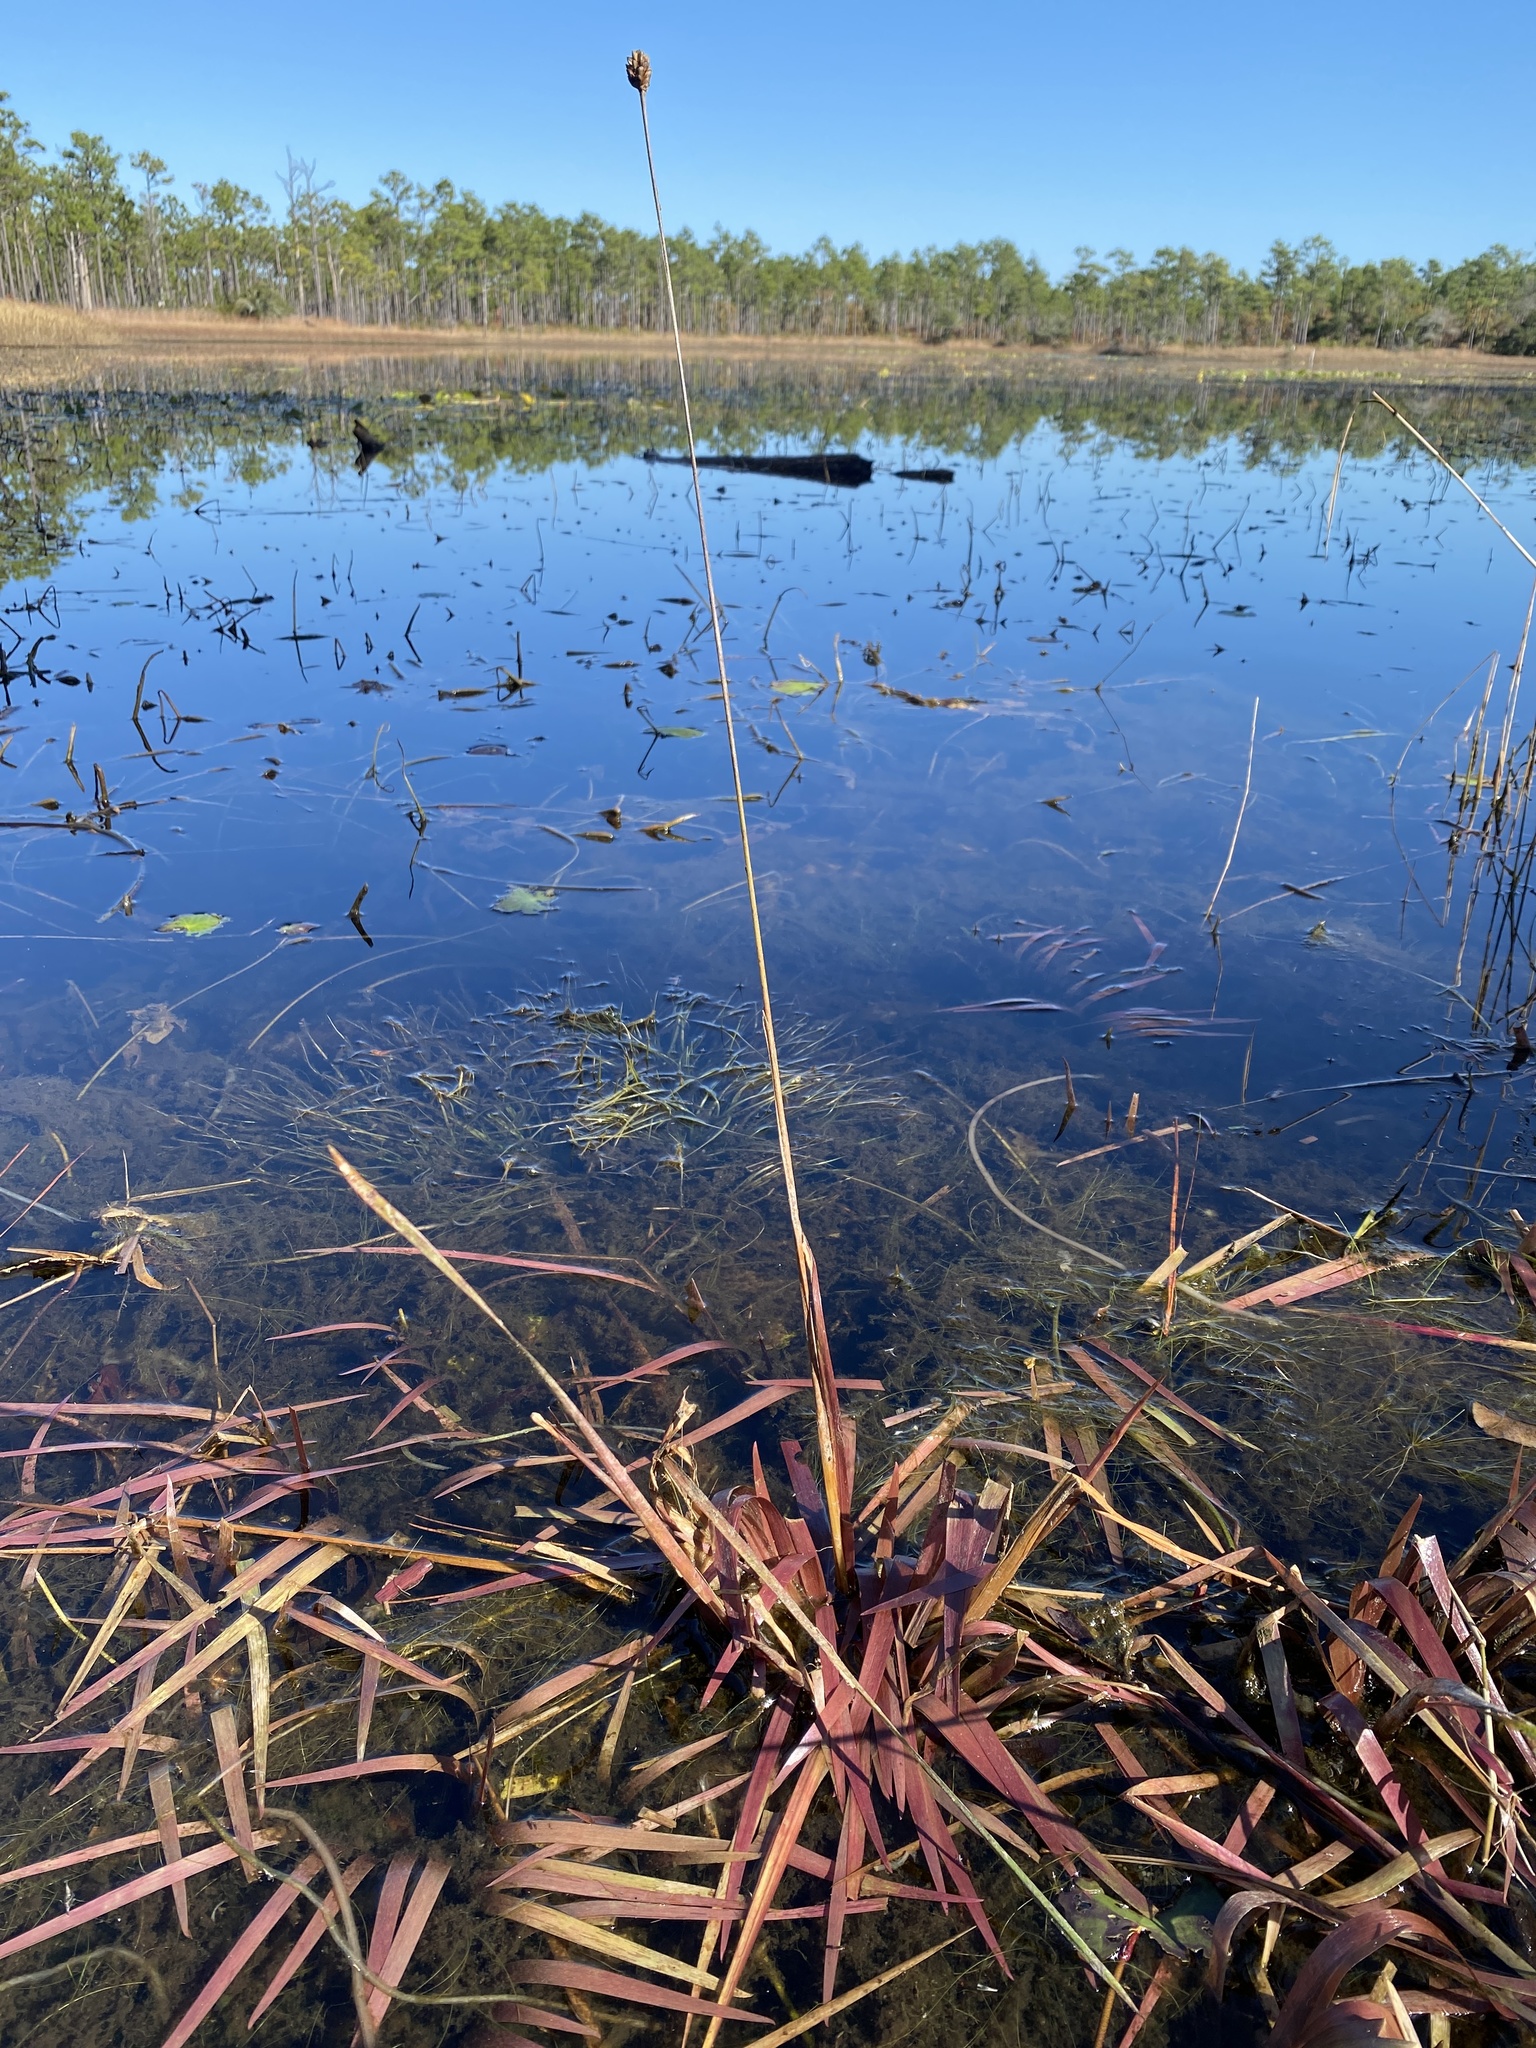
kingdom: Plantae
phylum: Tracheophyta
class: Liliopsida
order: Poales
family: Xyridaceae
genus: Xyris
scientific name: Xyris smalliana
